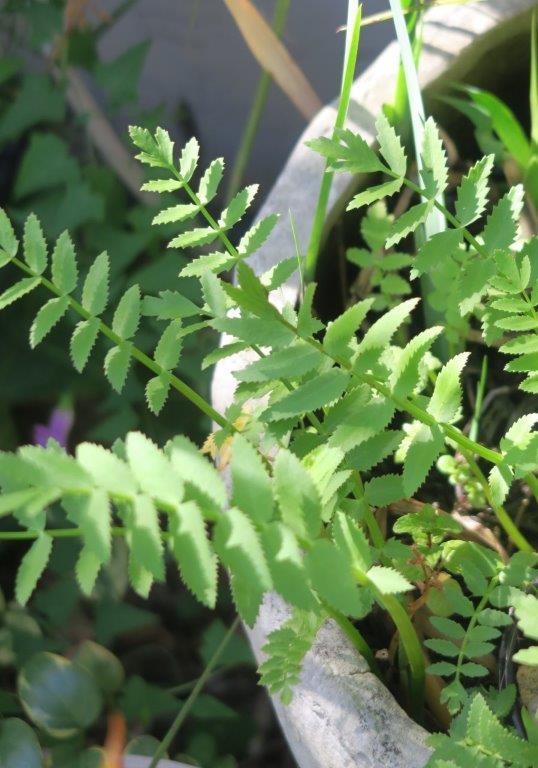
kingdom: Plantae
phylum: Tracheophyta
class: Magnoliopsida
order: Apiales
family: Apiaceae
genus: Berula
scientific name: Berula thunbergii
